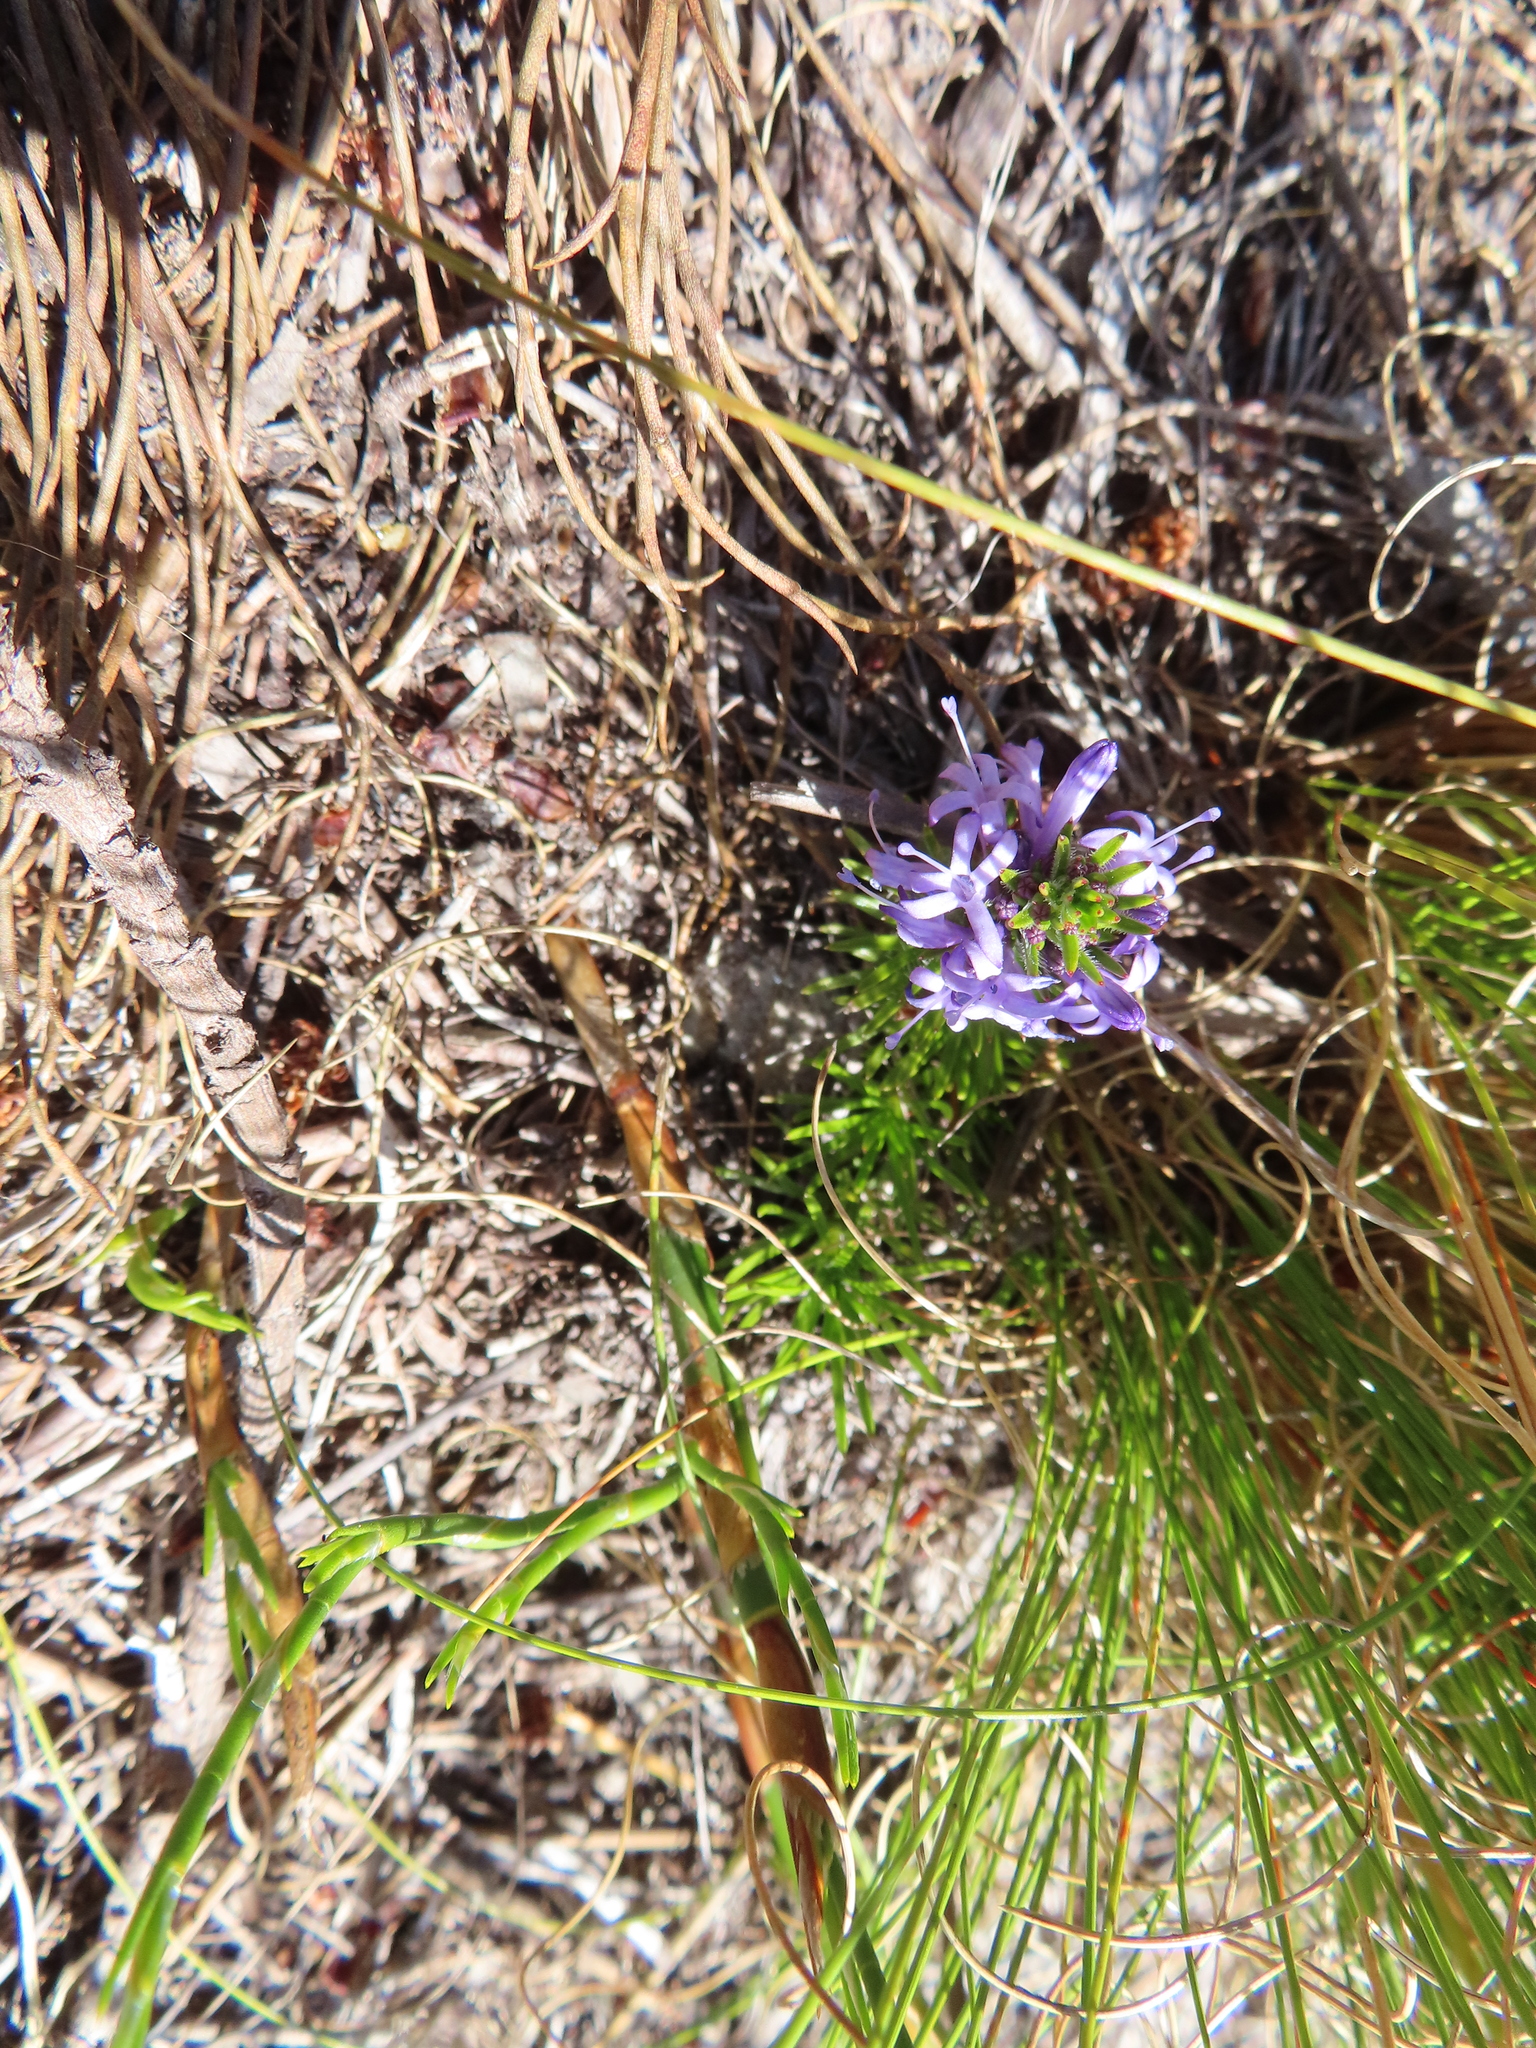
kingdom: Plantae
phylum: Tracheophyta
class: Magnoliopsida
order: Asterales
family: Campanulaceae
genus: Merciera
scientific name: Merciera azurea
